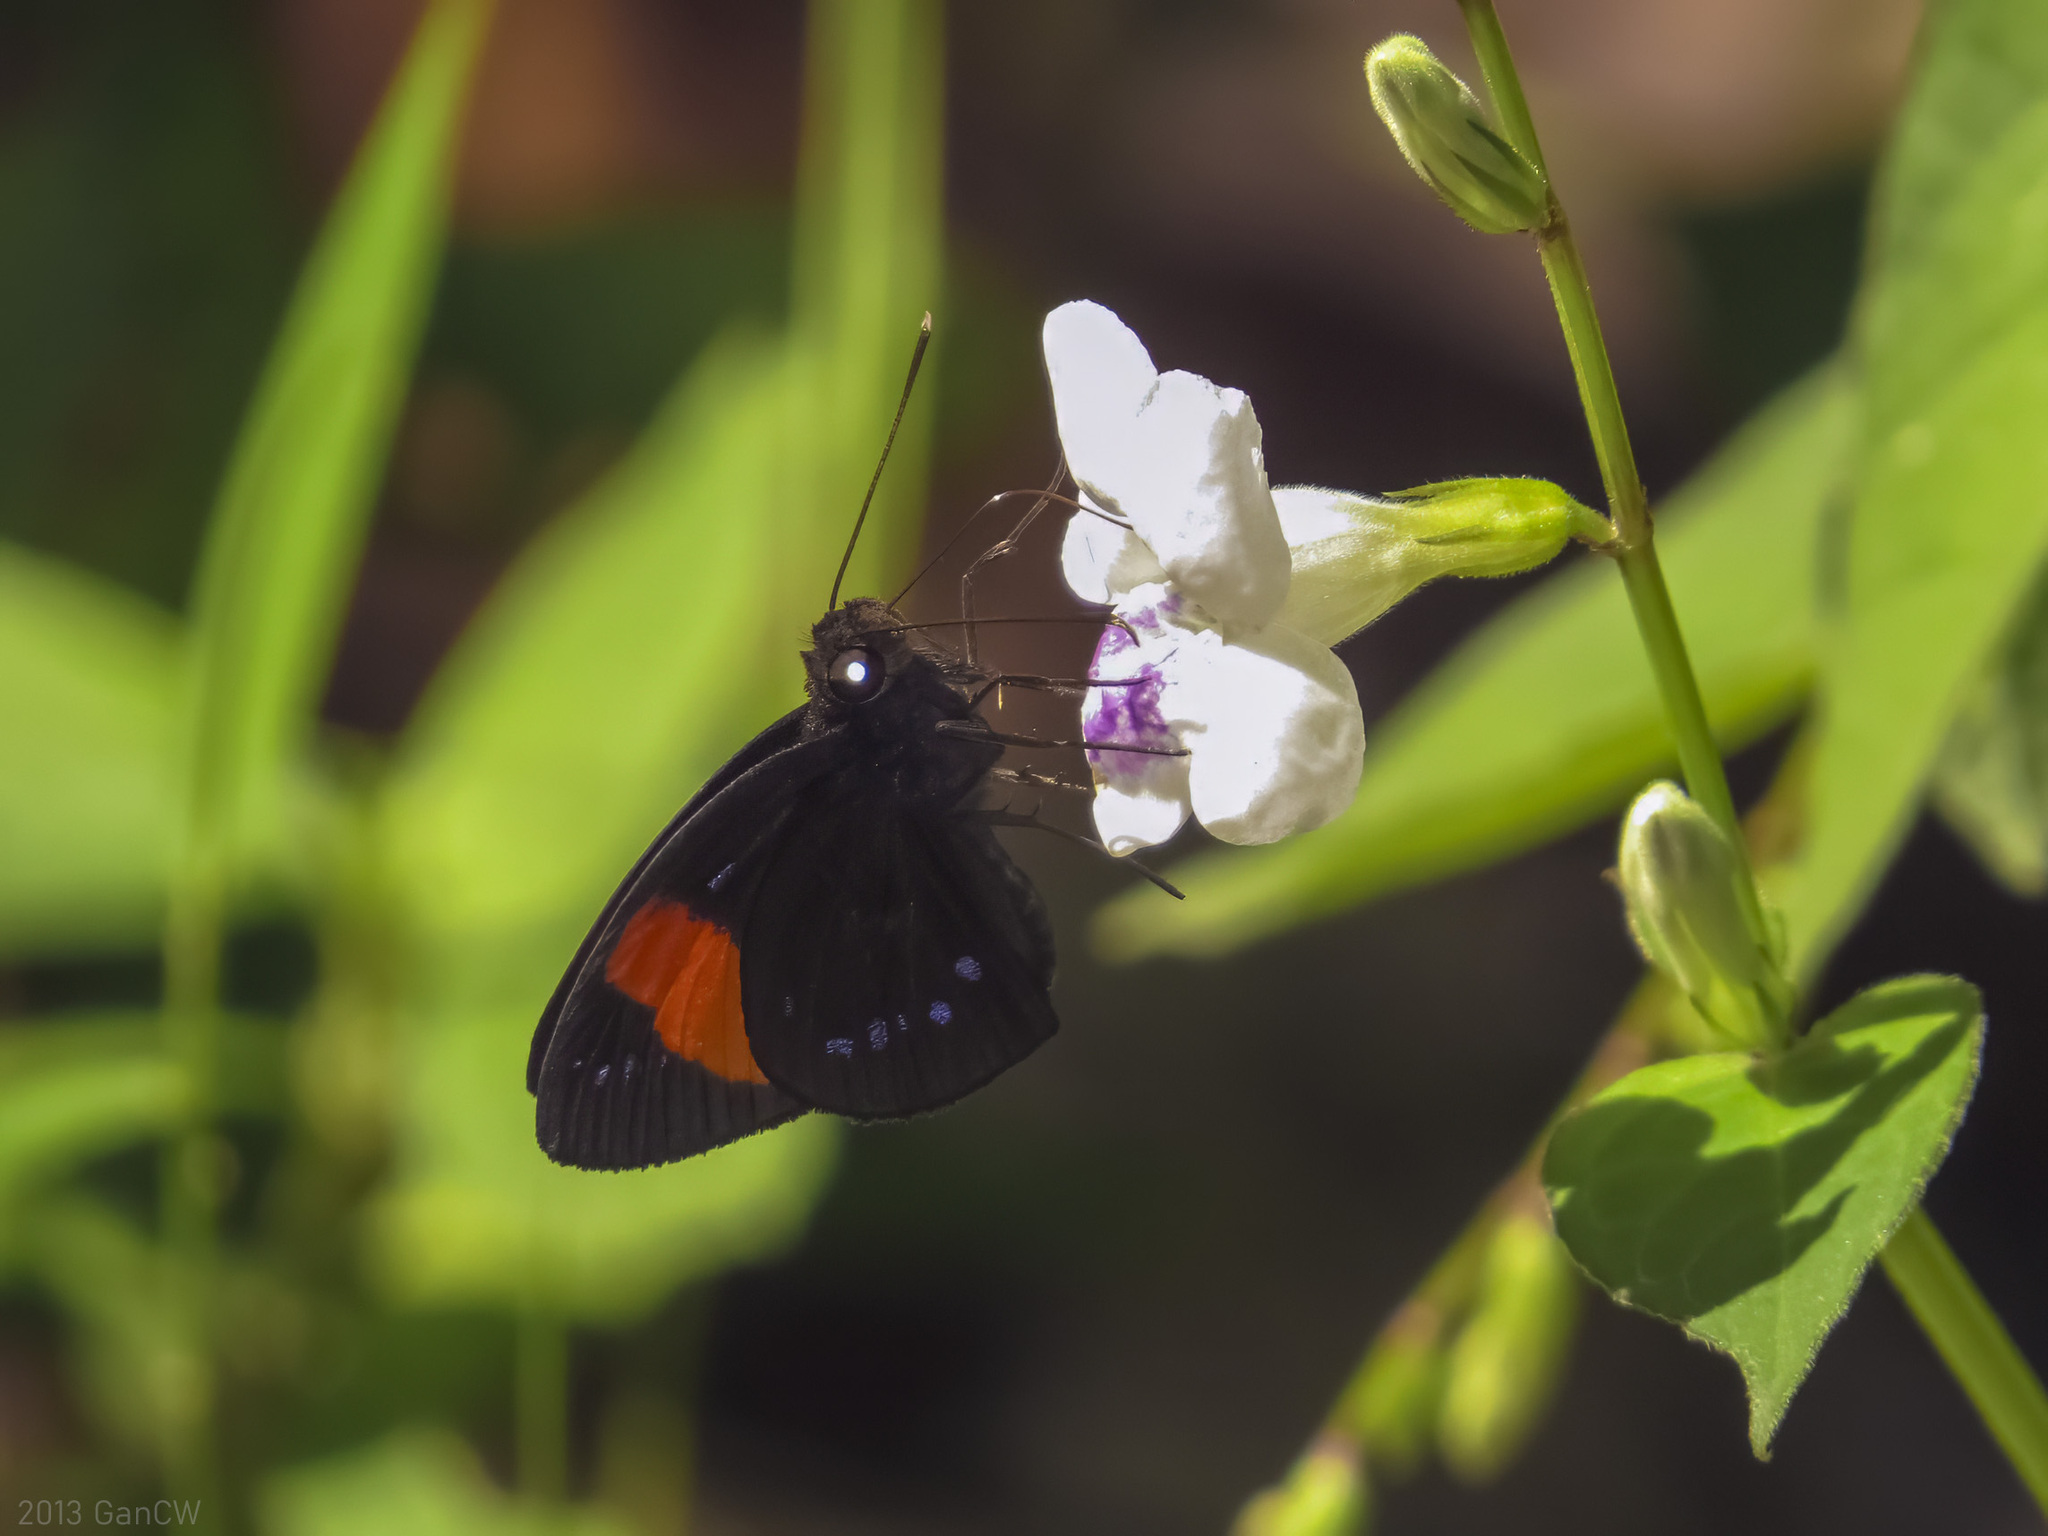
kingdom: Animalia
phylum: Arthropoda
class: Insecta
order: Lepidoptera
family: Hesperiidae
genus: Ancistroides
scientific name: Ancistroides gemmifer
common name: Gem demon
